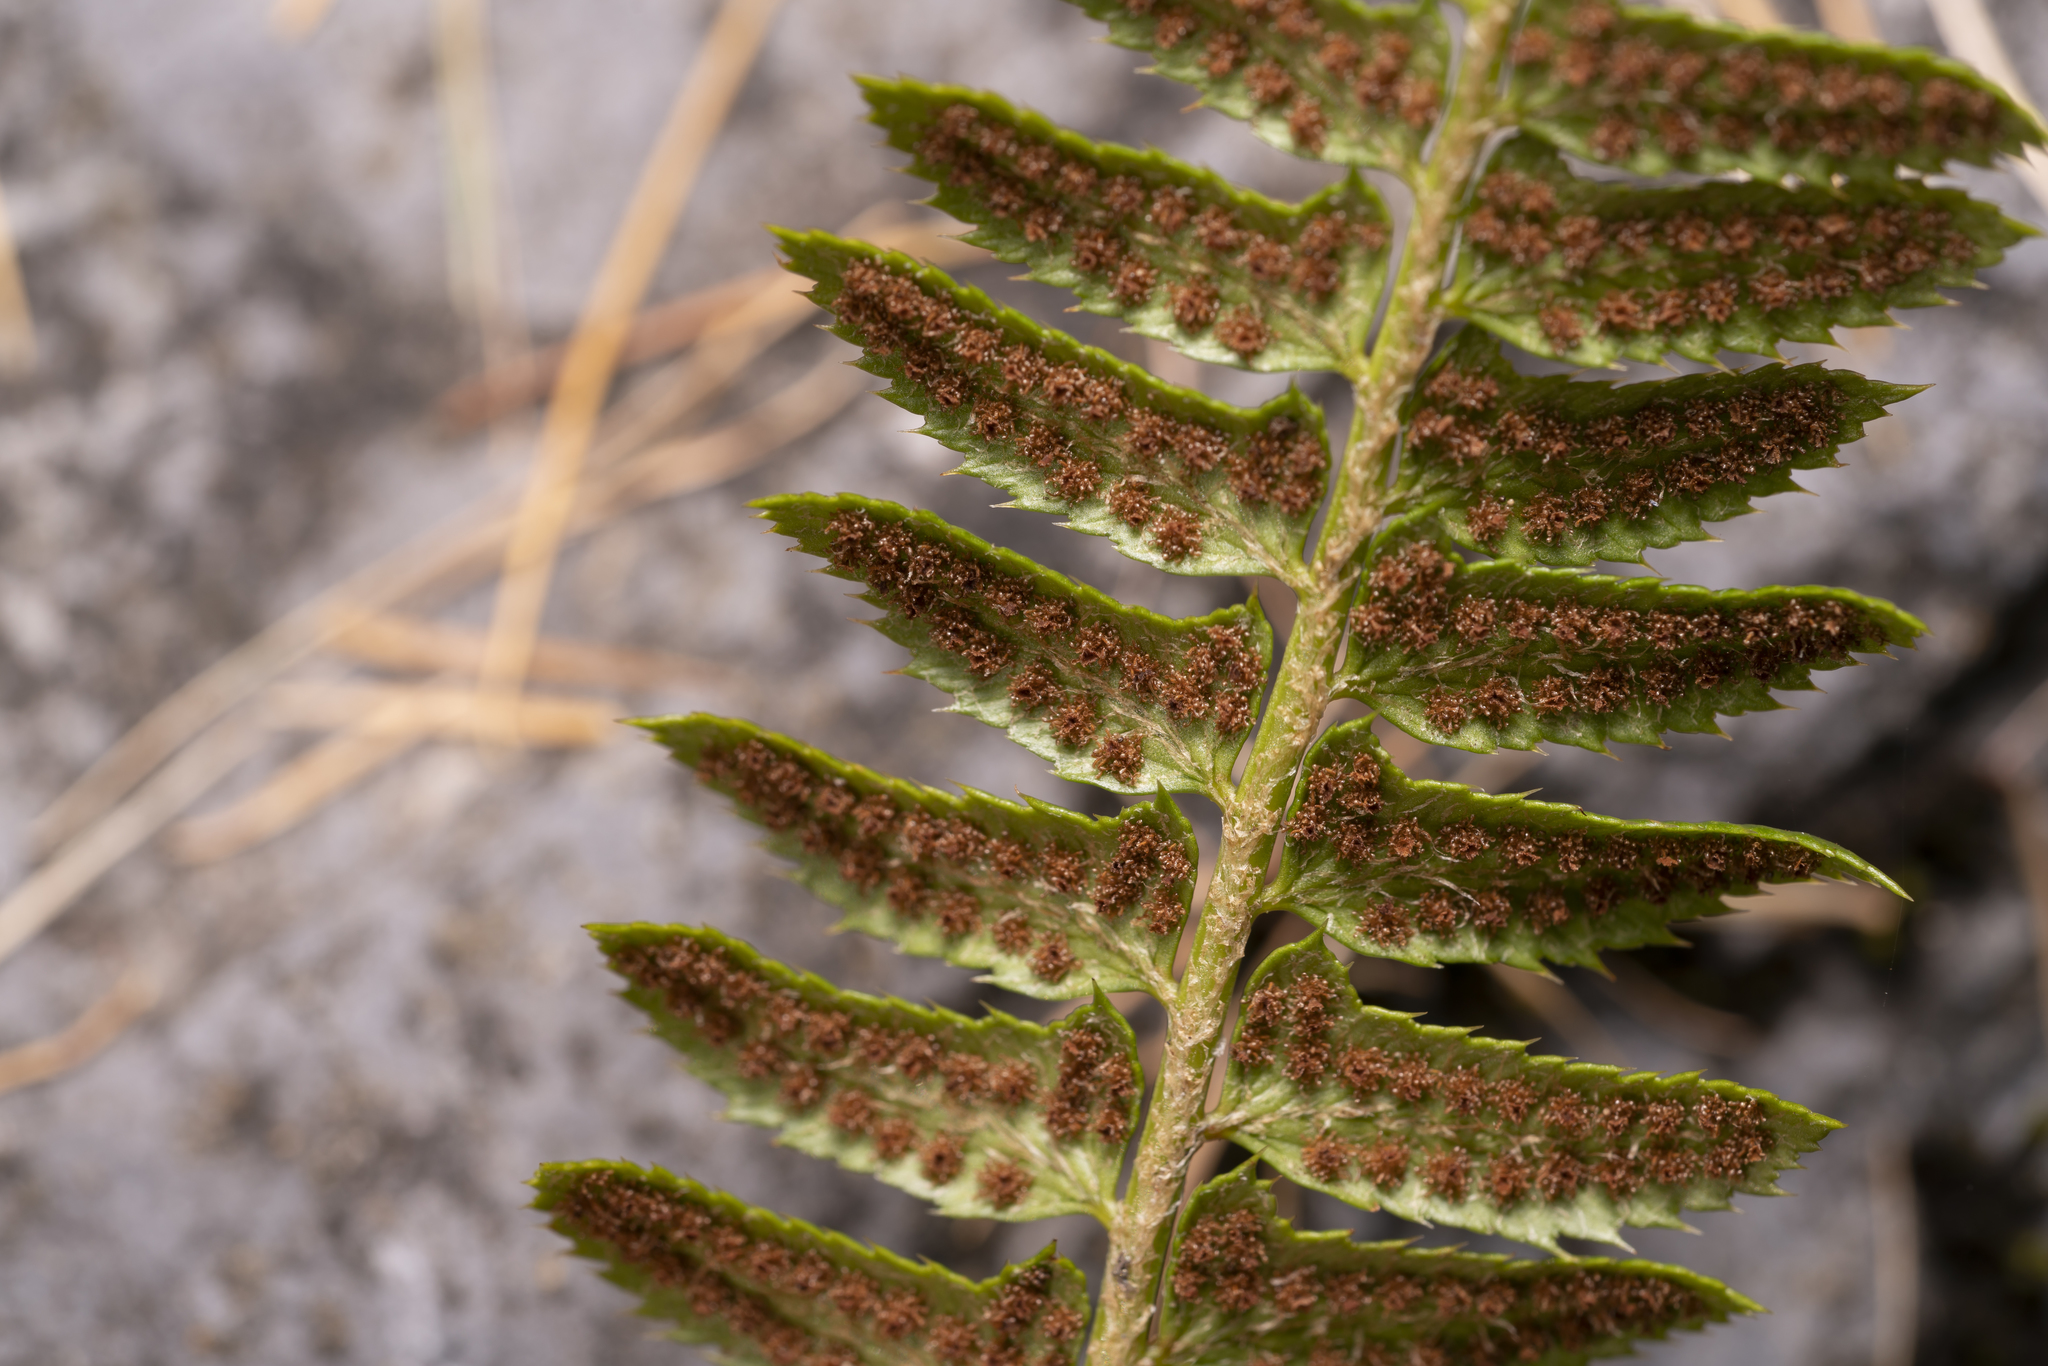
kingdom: Plantae
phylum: Tracheophyta
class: Polypodiopsida
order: Polypodiales
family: Dryopteridaceae
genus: Polystichum
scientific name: Polystichum lonchitis
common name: Holly fern
